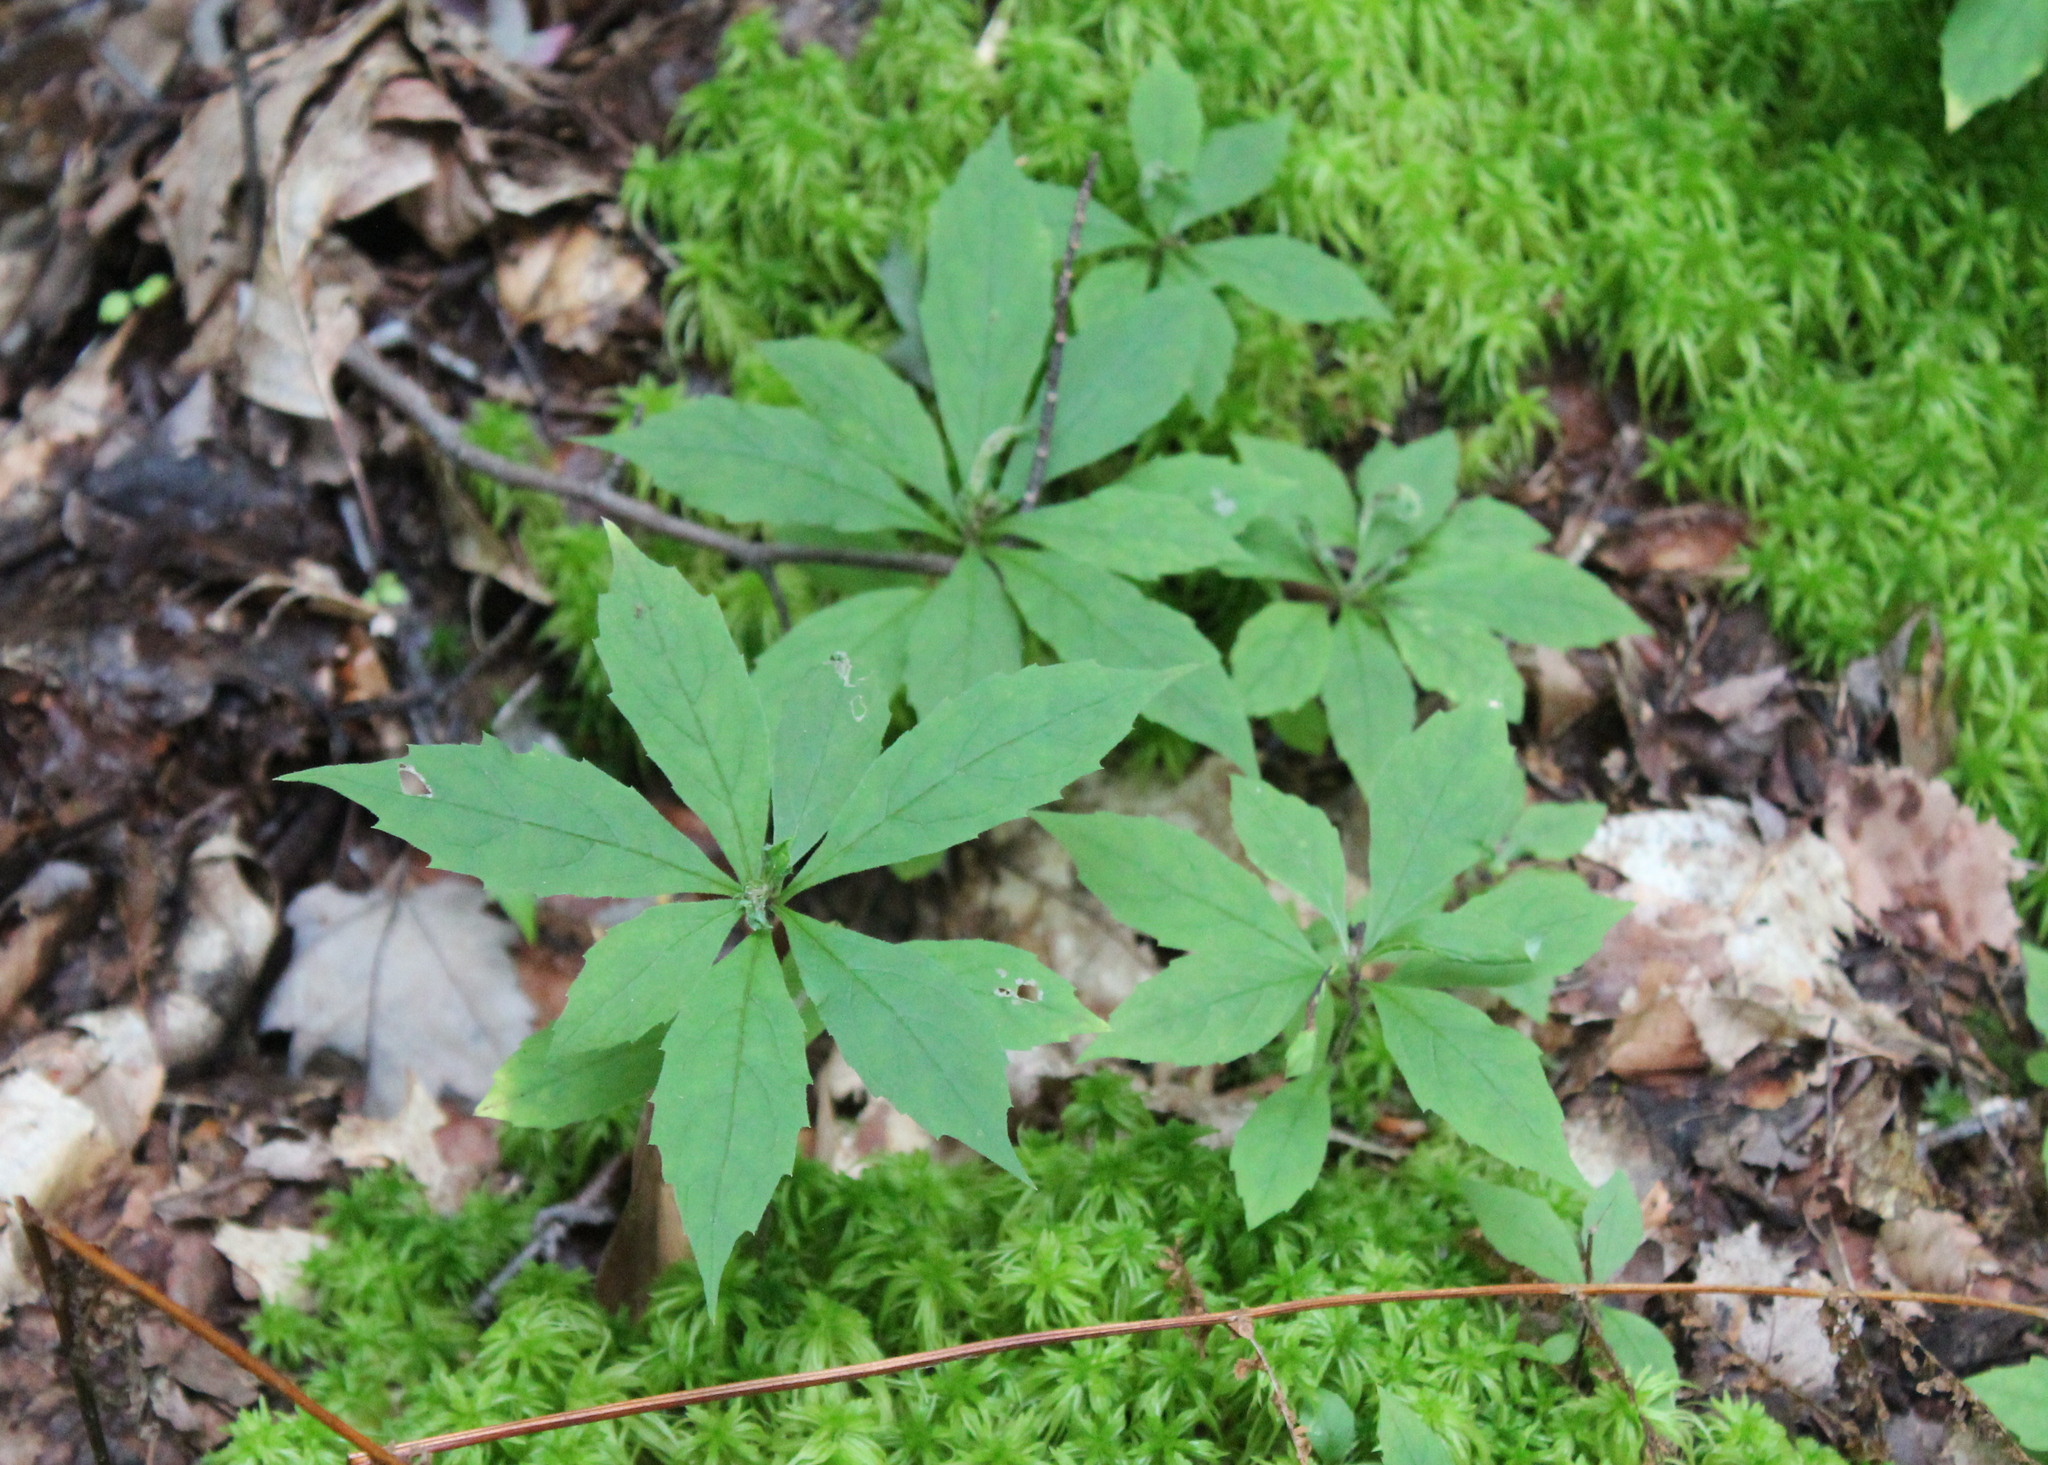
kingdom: Plantae
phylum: Tracheophyta
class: Magnoliopsida
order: Asterales
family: Asteraceae
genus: Oclemena
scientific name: Oclemena acuminata
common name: Mountain aster
